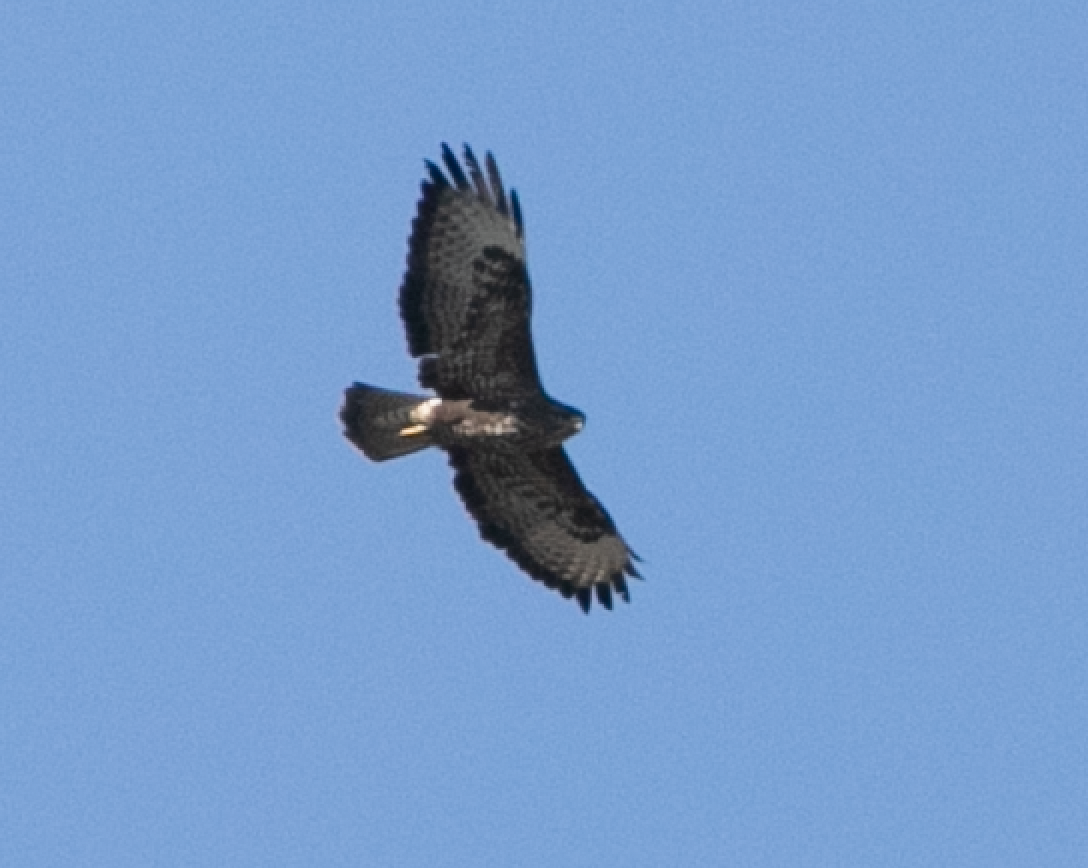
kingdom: Animalia
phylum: Chordata
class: Aves
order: Accipitriformes
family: Accipitridae
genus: Buteo
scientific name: Buteo buteo
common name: Common buzzard
